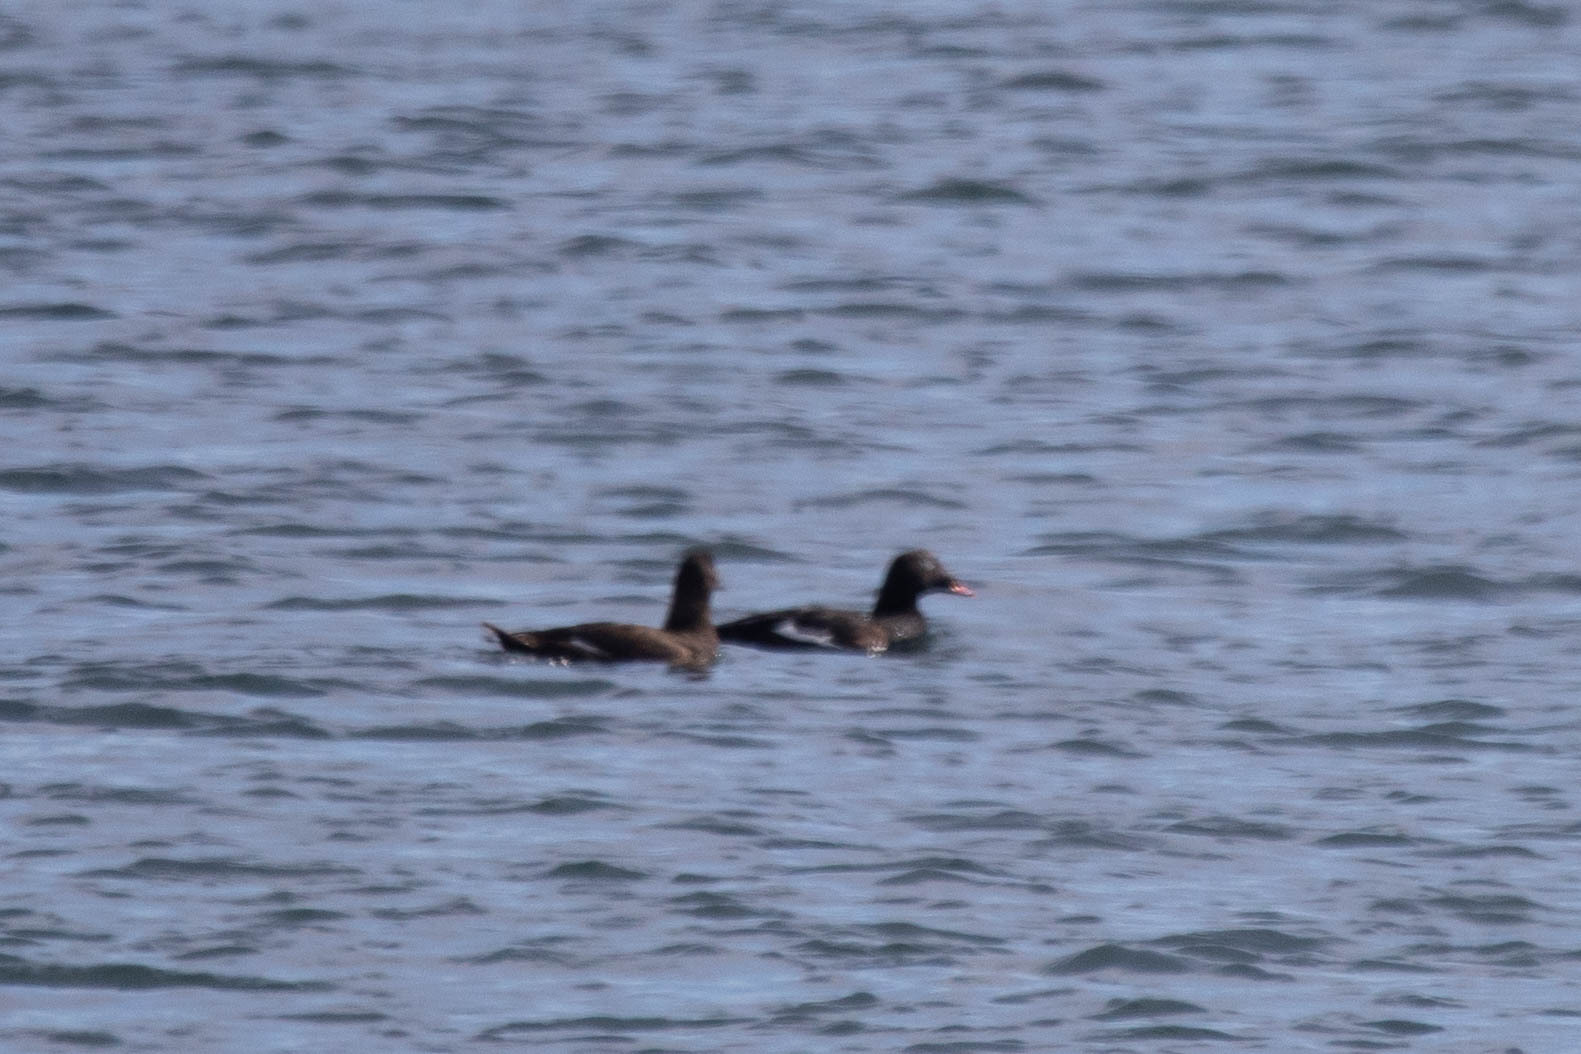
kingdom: Animalia
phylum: Chordata
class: Aves
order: Anseriformes
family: Anatidae
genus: Melanitta
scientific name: Melanitta deglandi
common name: White-winged scoter
